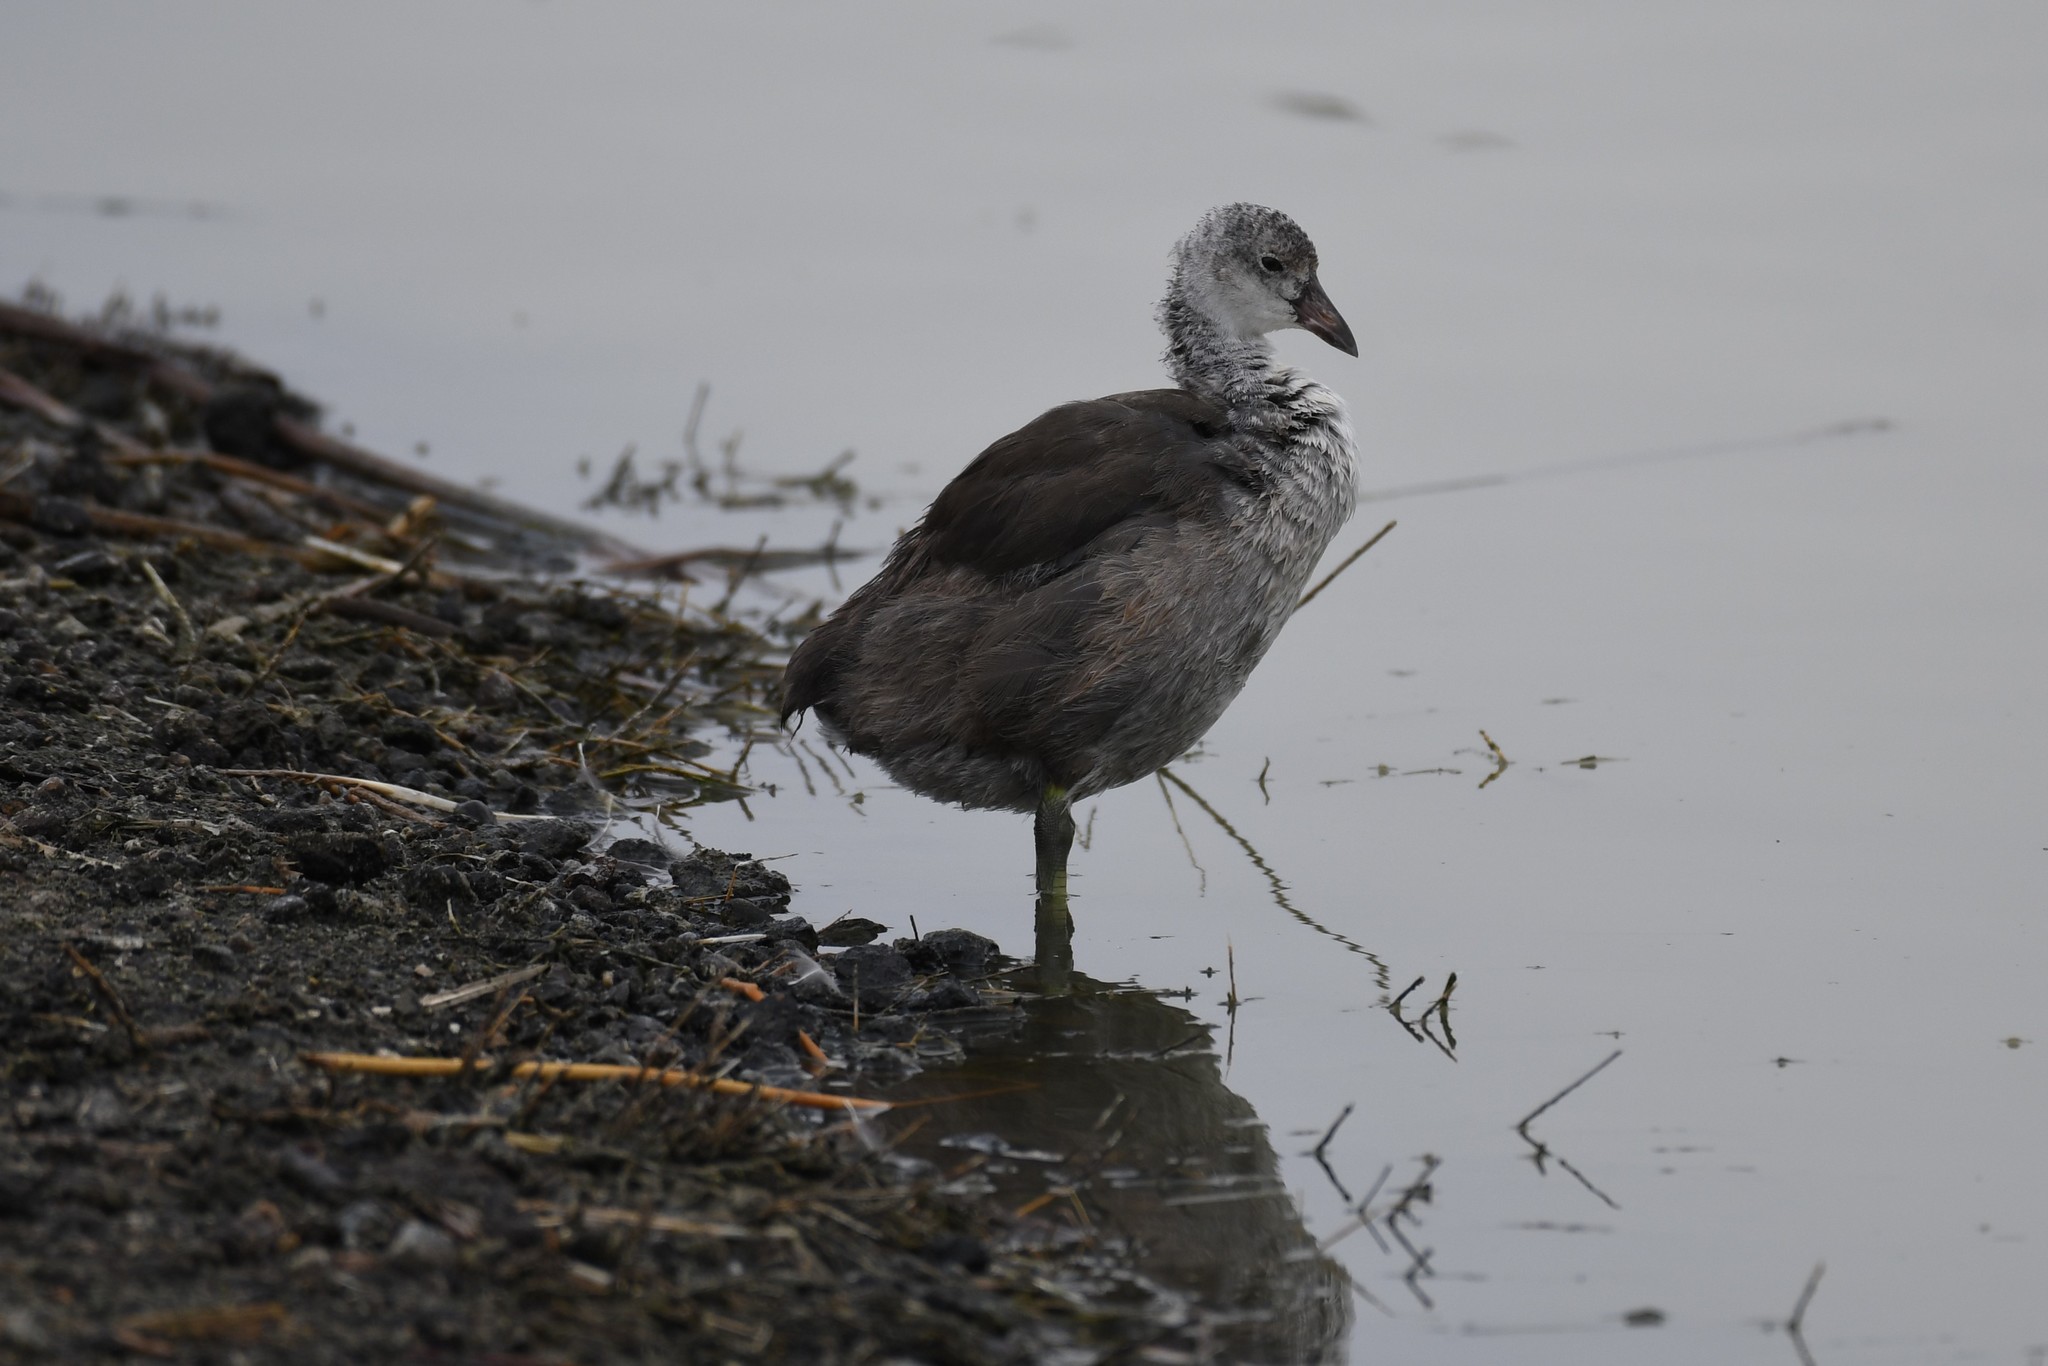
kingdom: Animalia
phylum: Chordata
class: Aves
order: Gruiformes
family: Rallidae
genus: Fulica
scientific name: Fulica americana
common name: American coot
